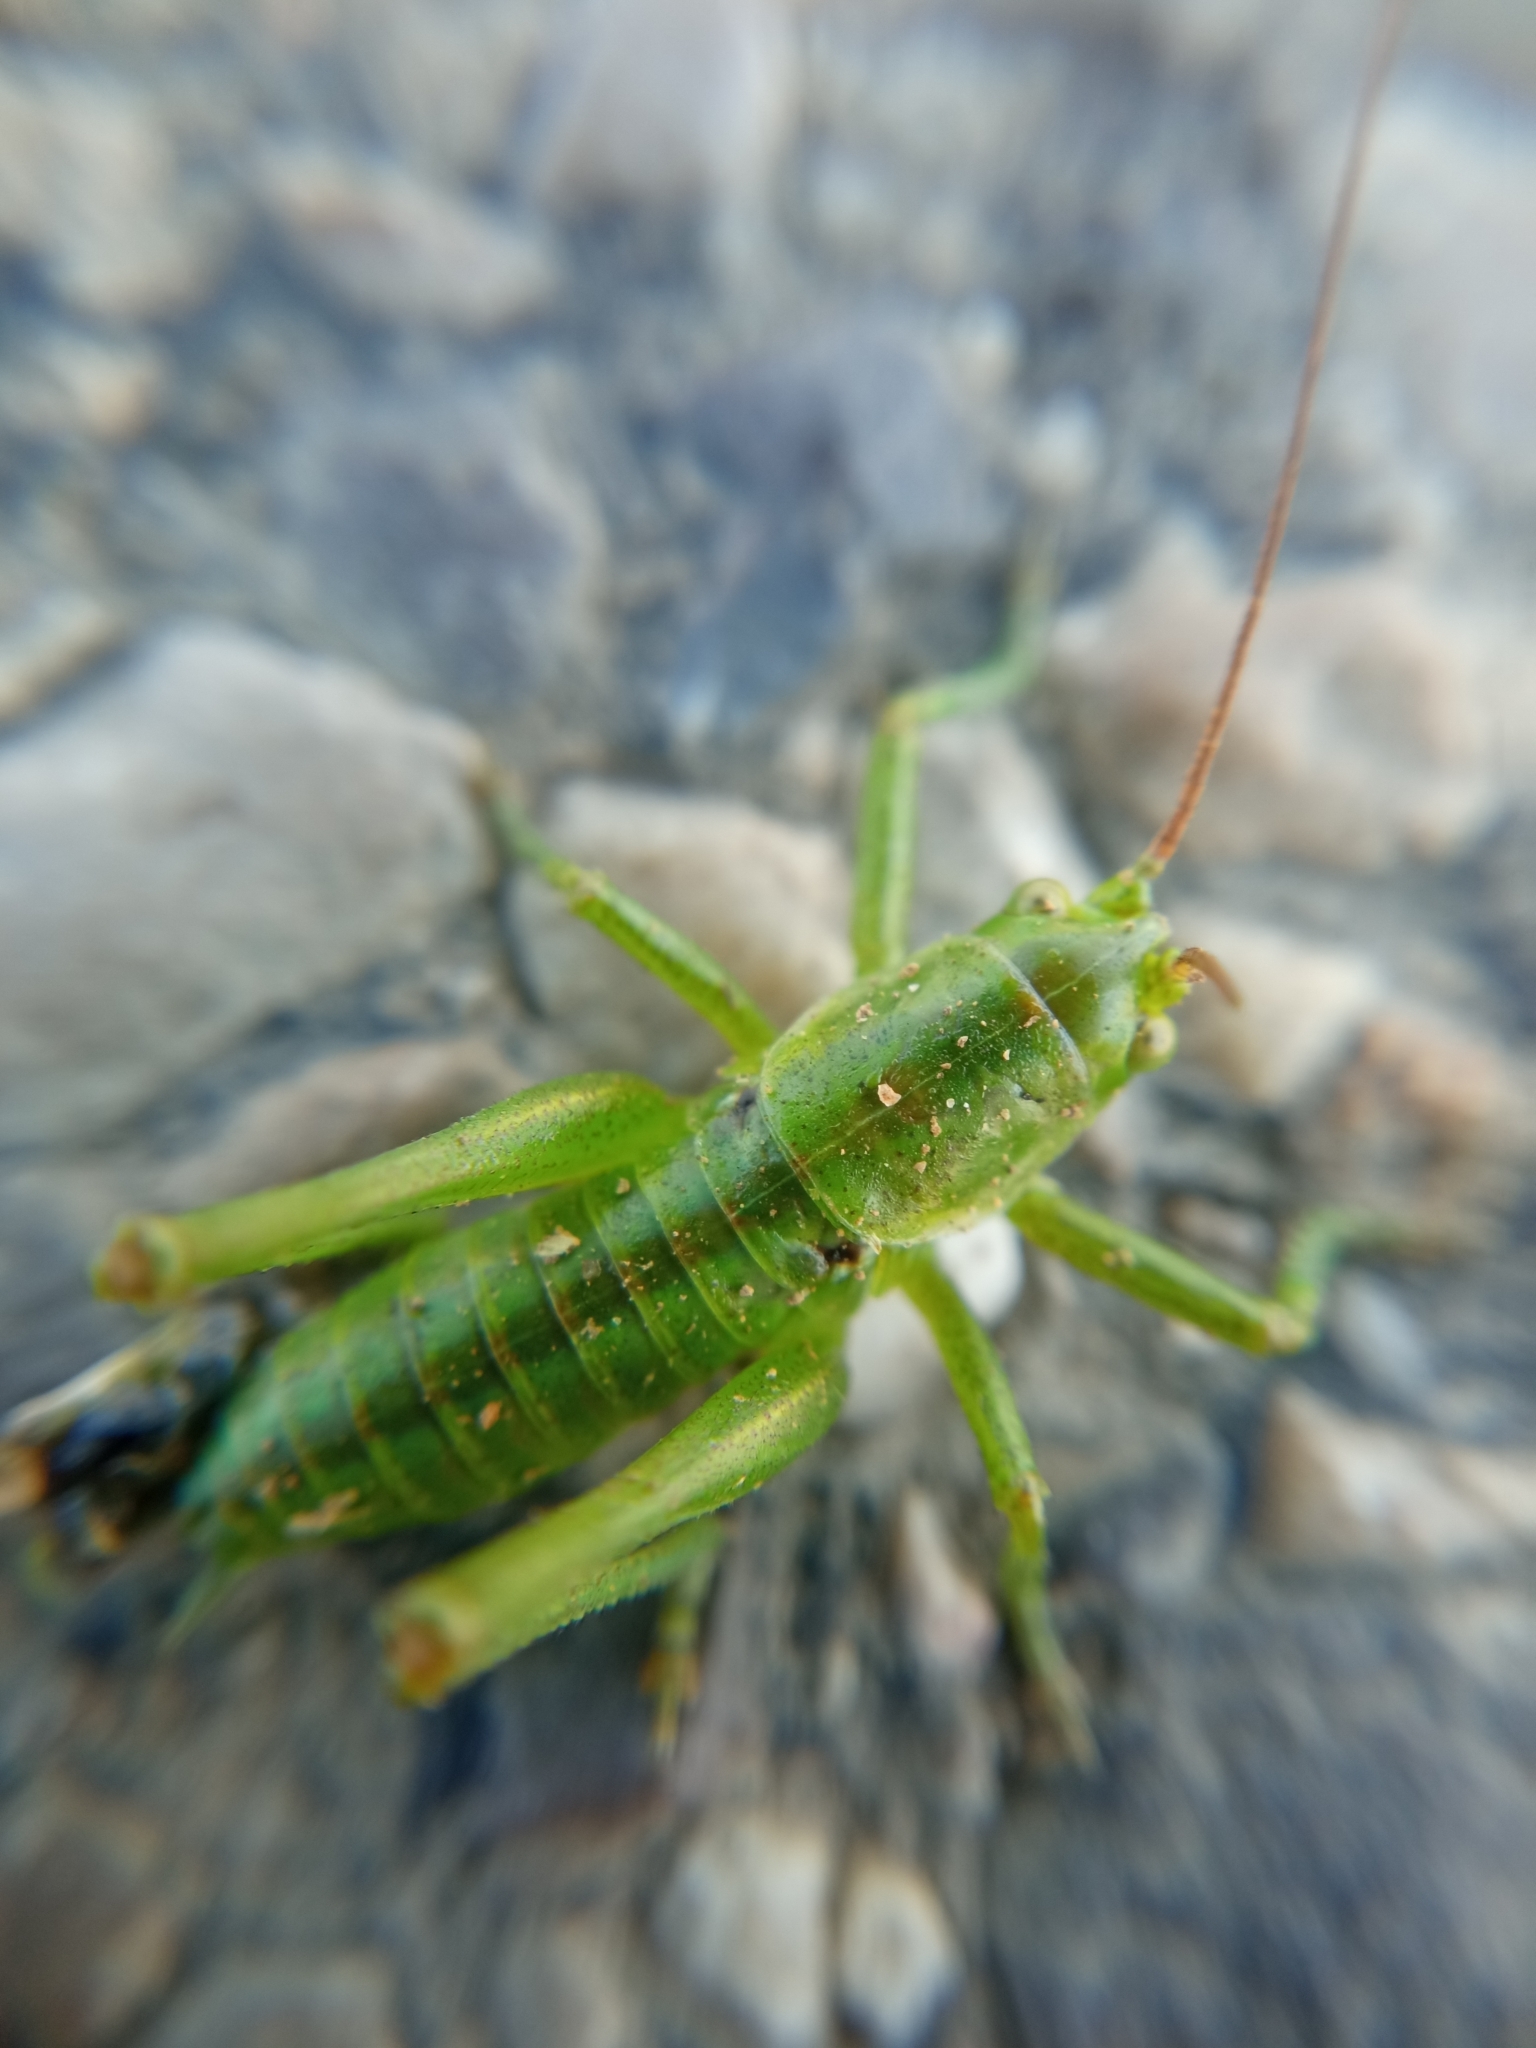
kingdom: Animalia
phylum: Arthropoda
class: Insecta
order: Orthoptera
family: Tettigoniidae
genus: Tettigonia
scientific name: Tettigonia viridissima
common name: Great green bush-cricket
